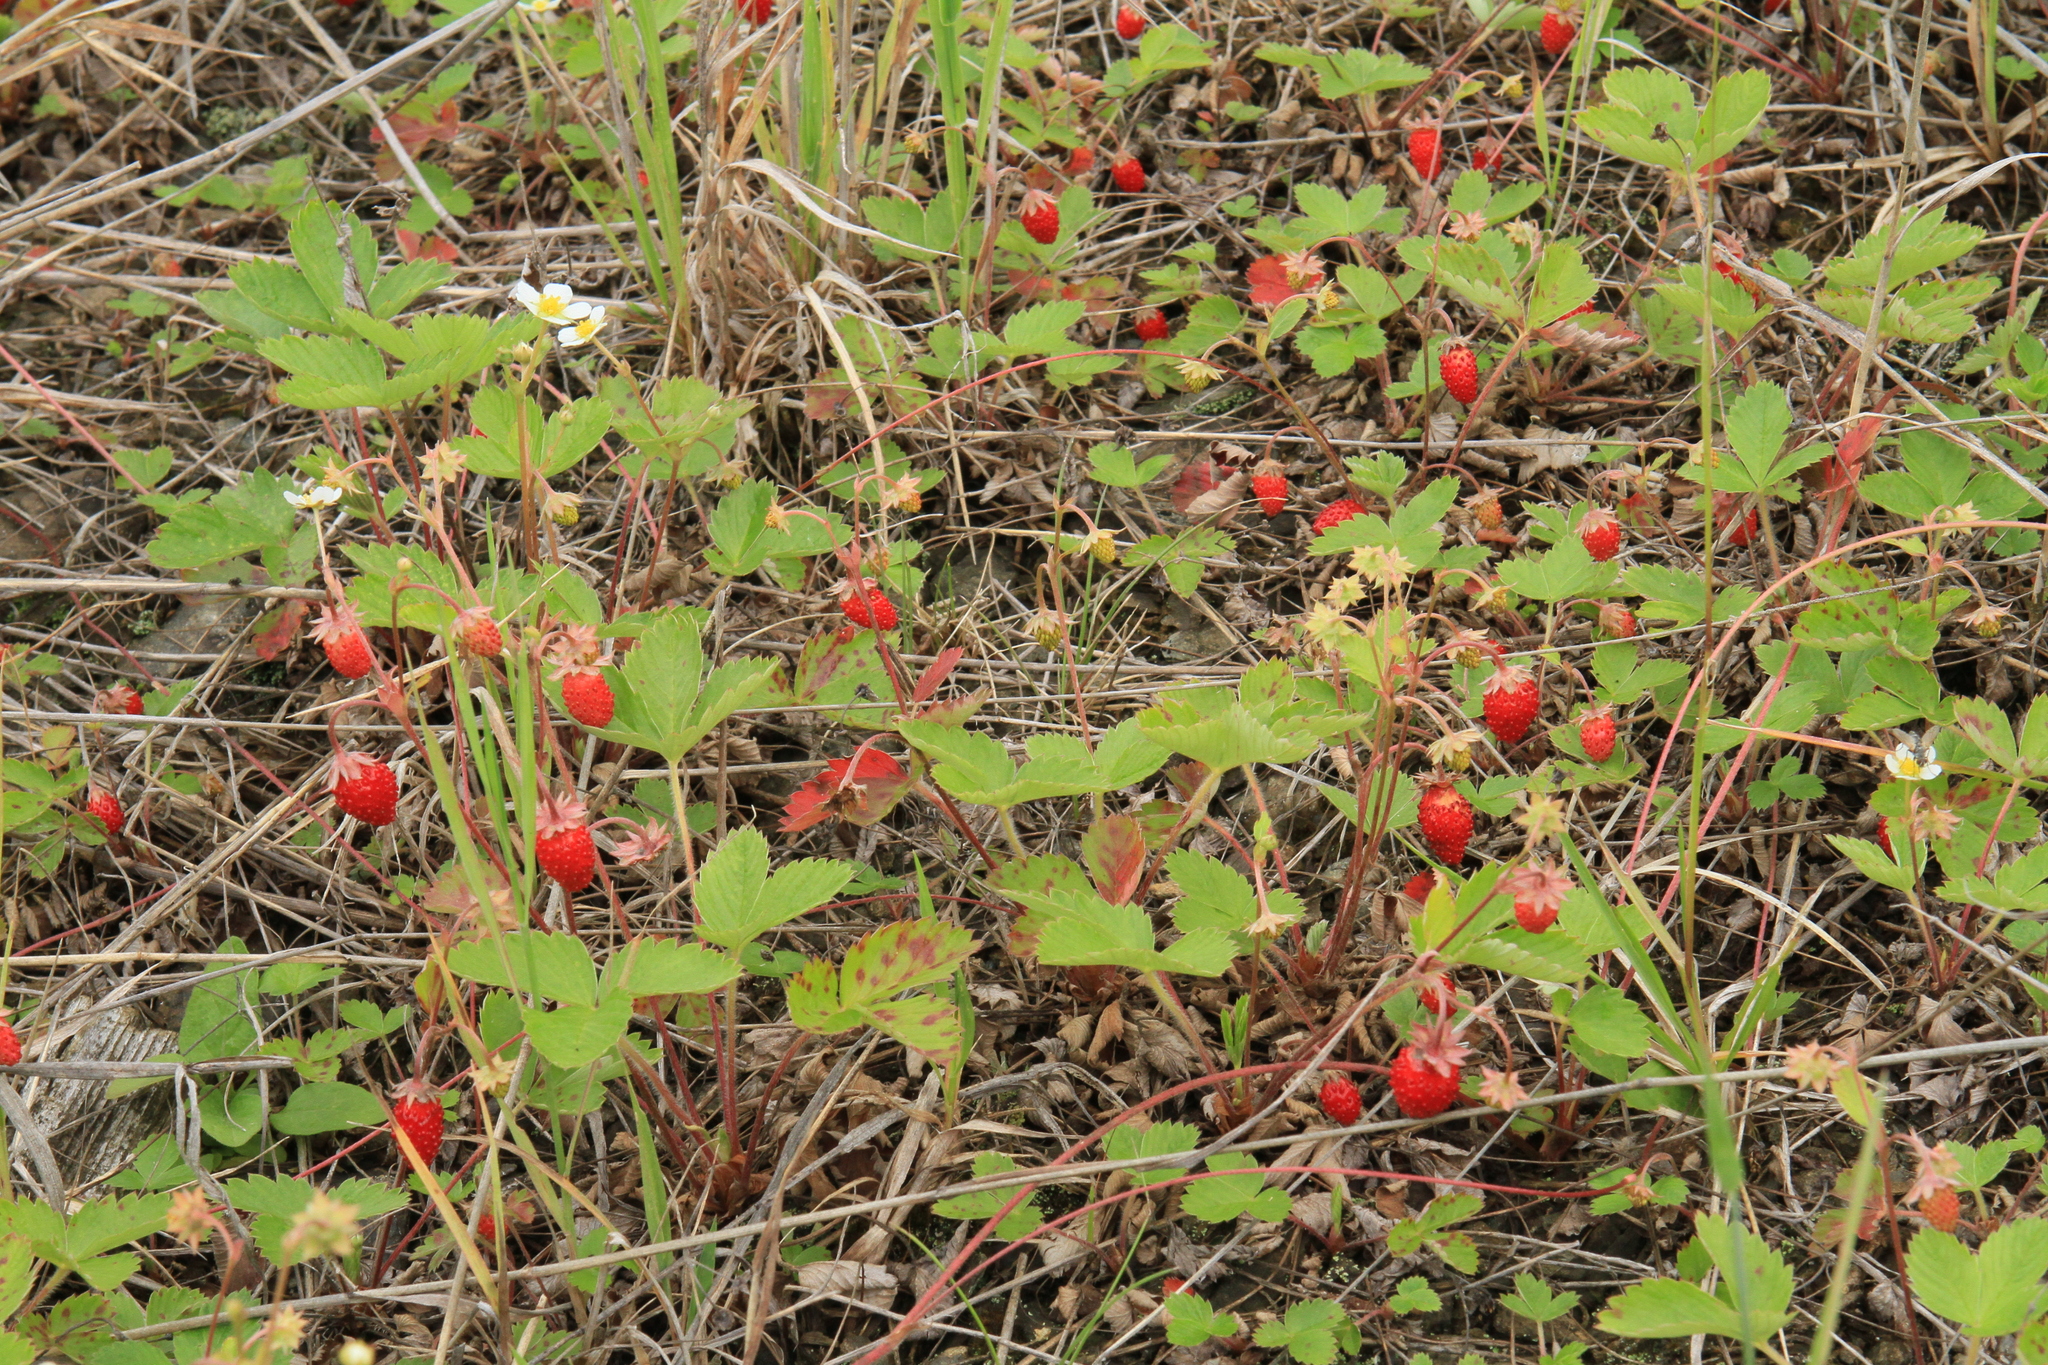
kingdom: Plantae
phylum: Tracheophyta
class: Magnoliopsida
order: Rosales
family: Rosaceae
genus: Fragaria
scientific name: Fragaria vesca
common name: Wild strawberry
